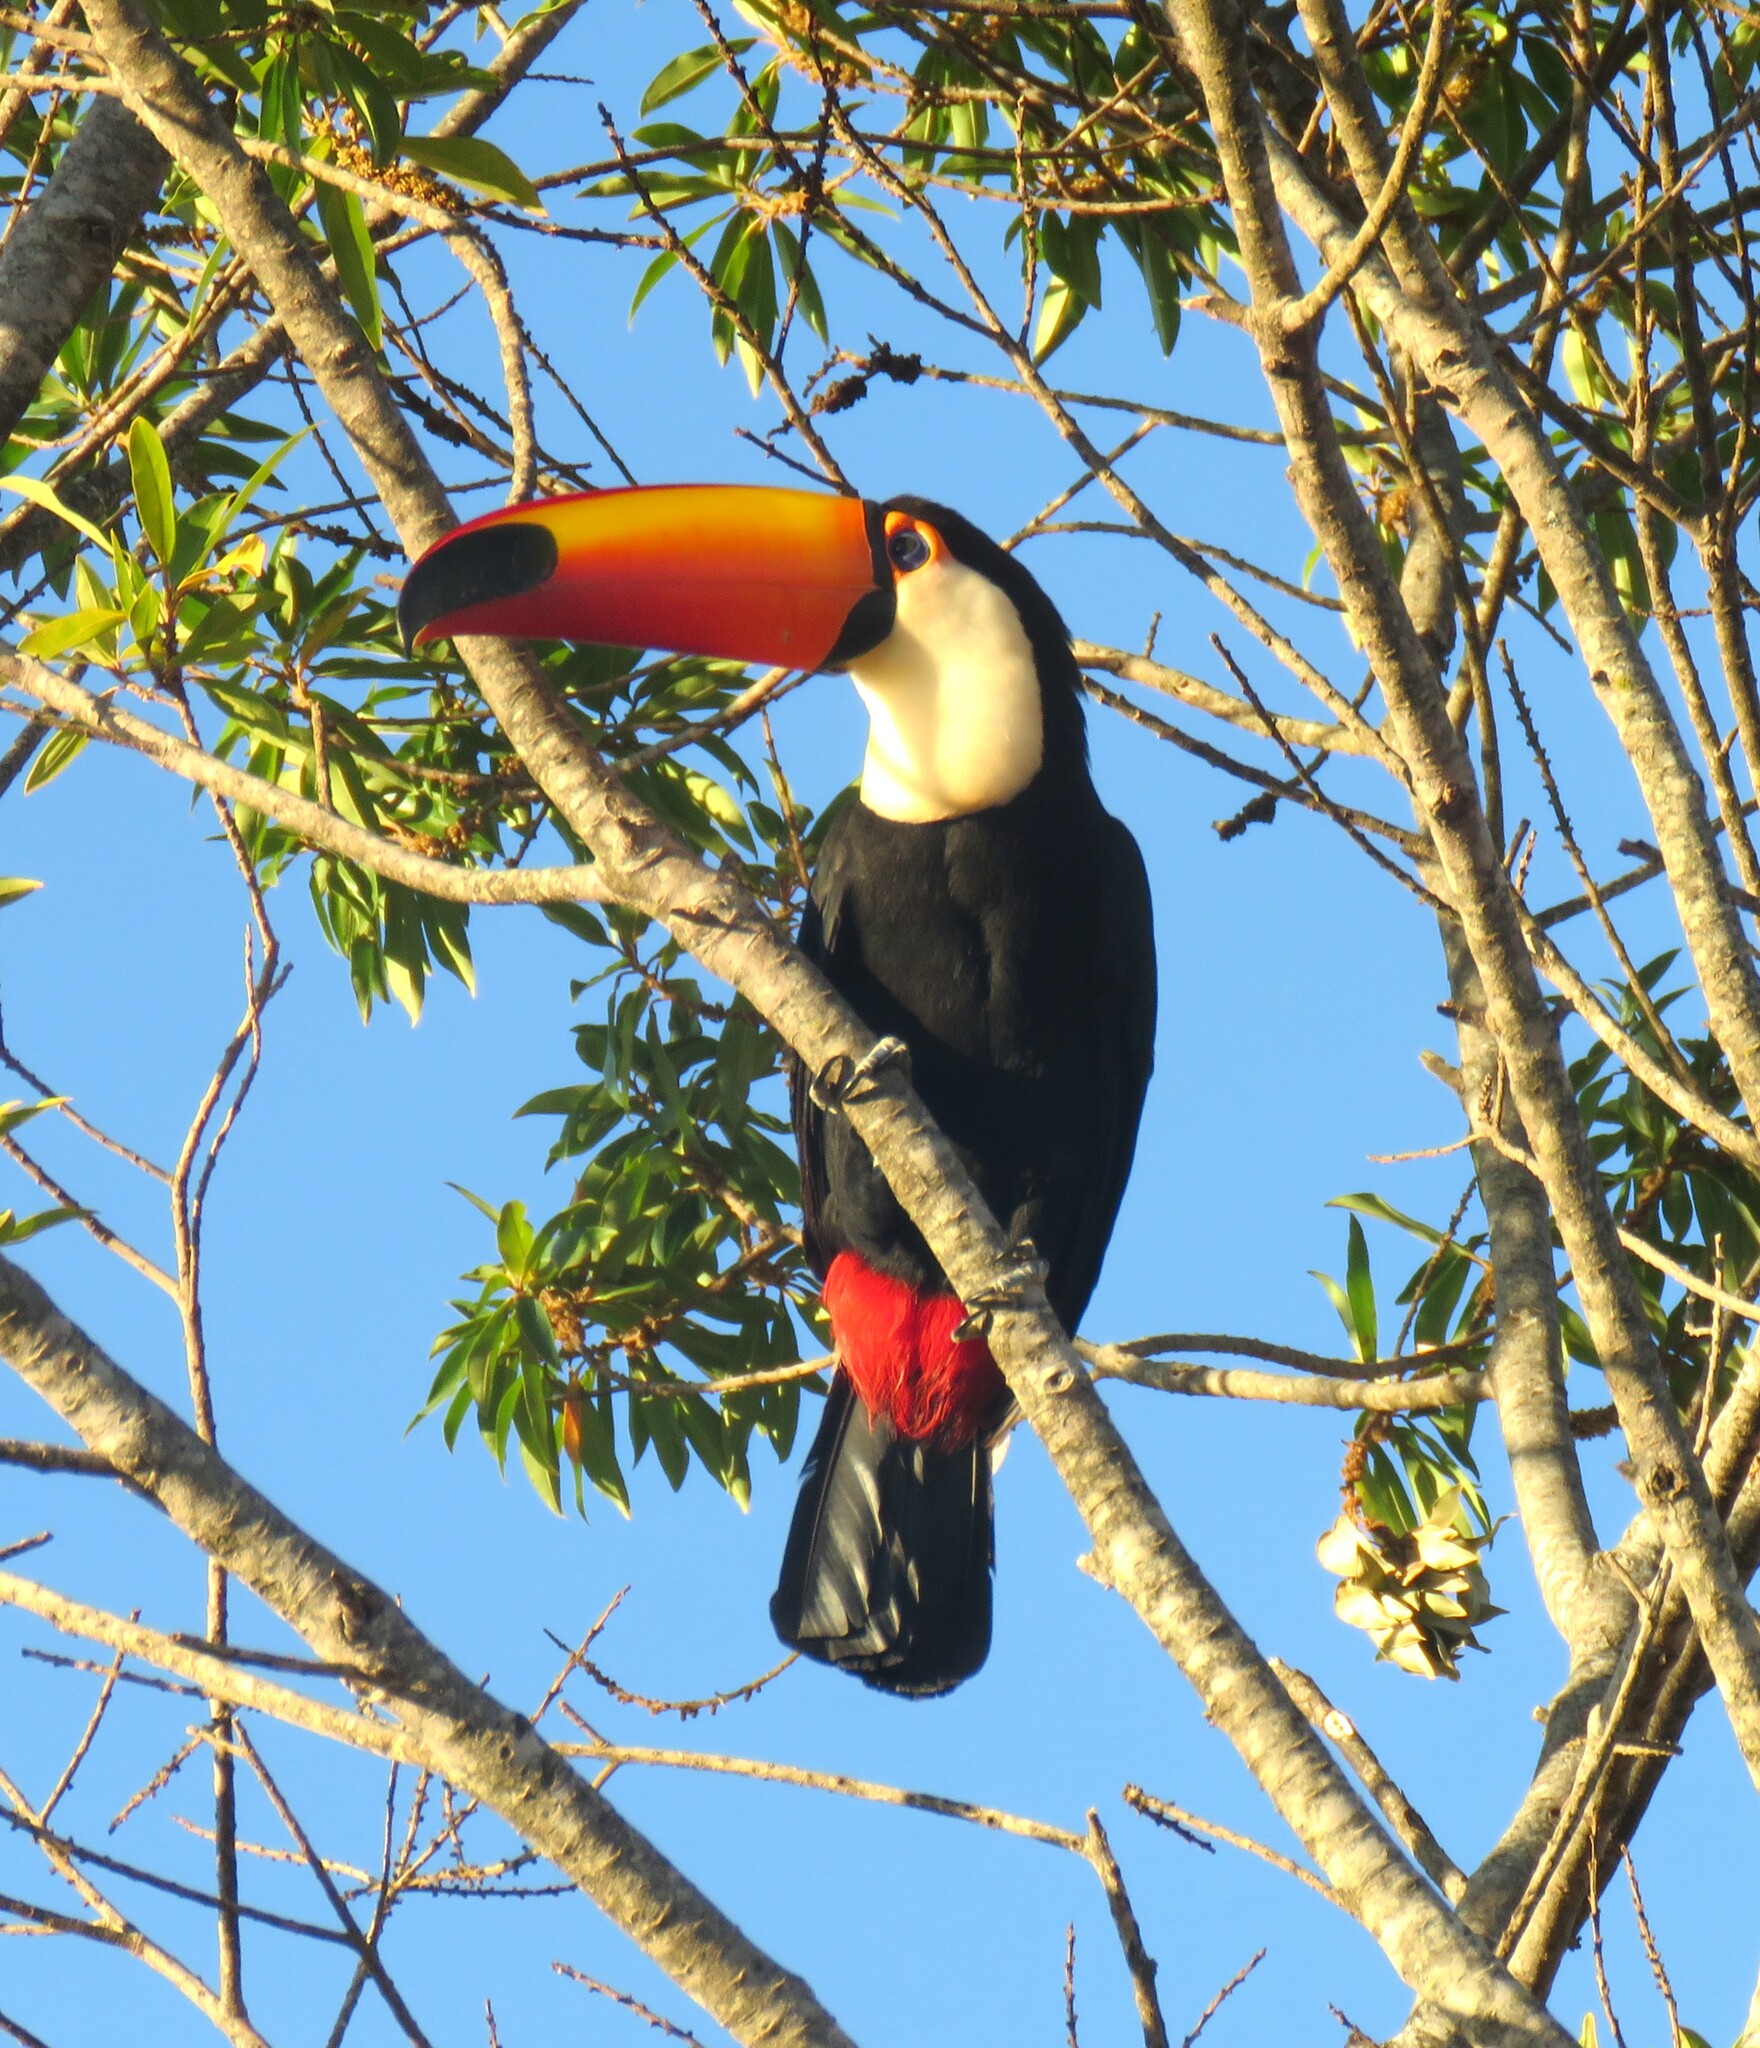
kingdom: Animalia
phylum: Chordata
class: Aves
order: Piciformes
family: Ramphastidae
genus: Ramphastos
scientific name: Ramphastos toco
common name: Toco toucan
